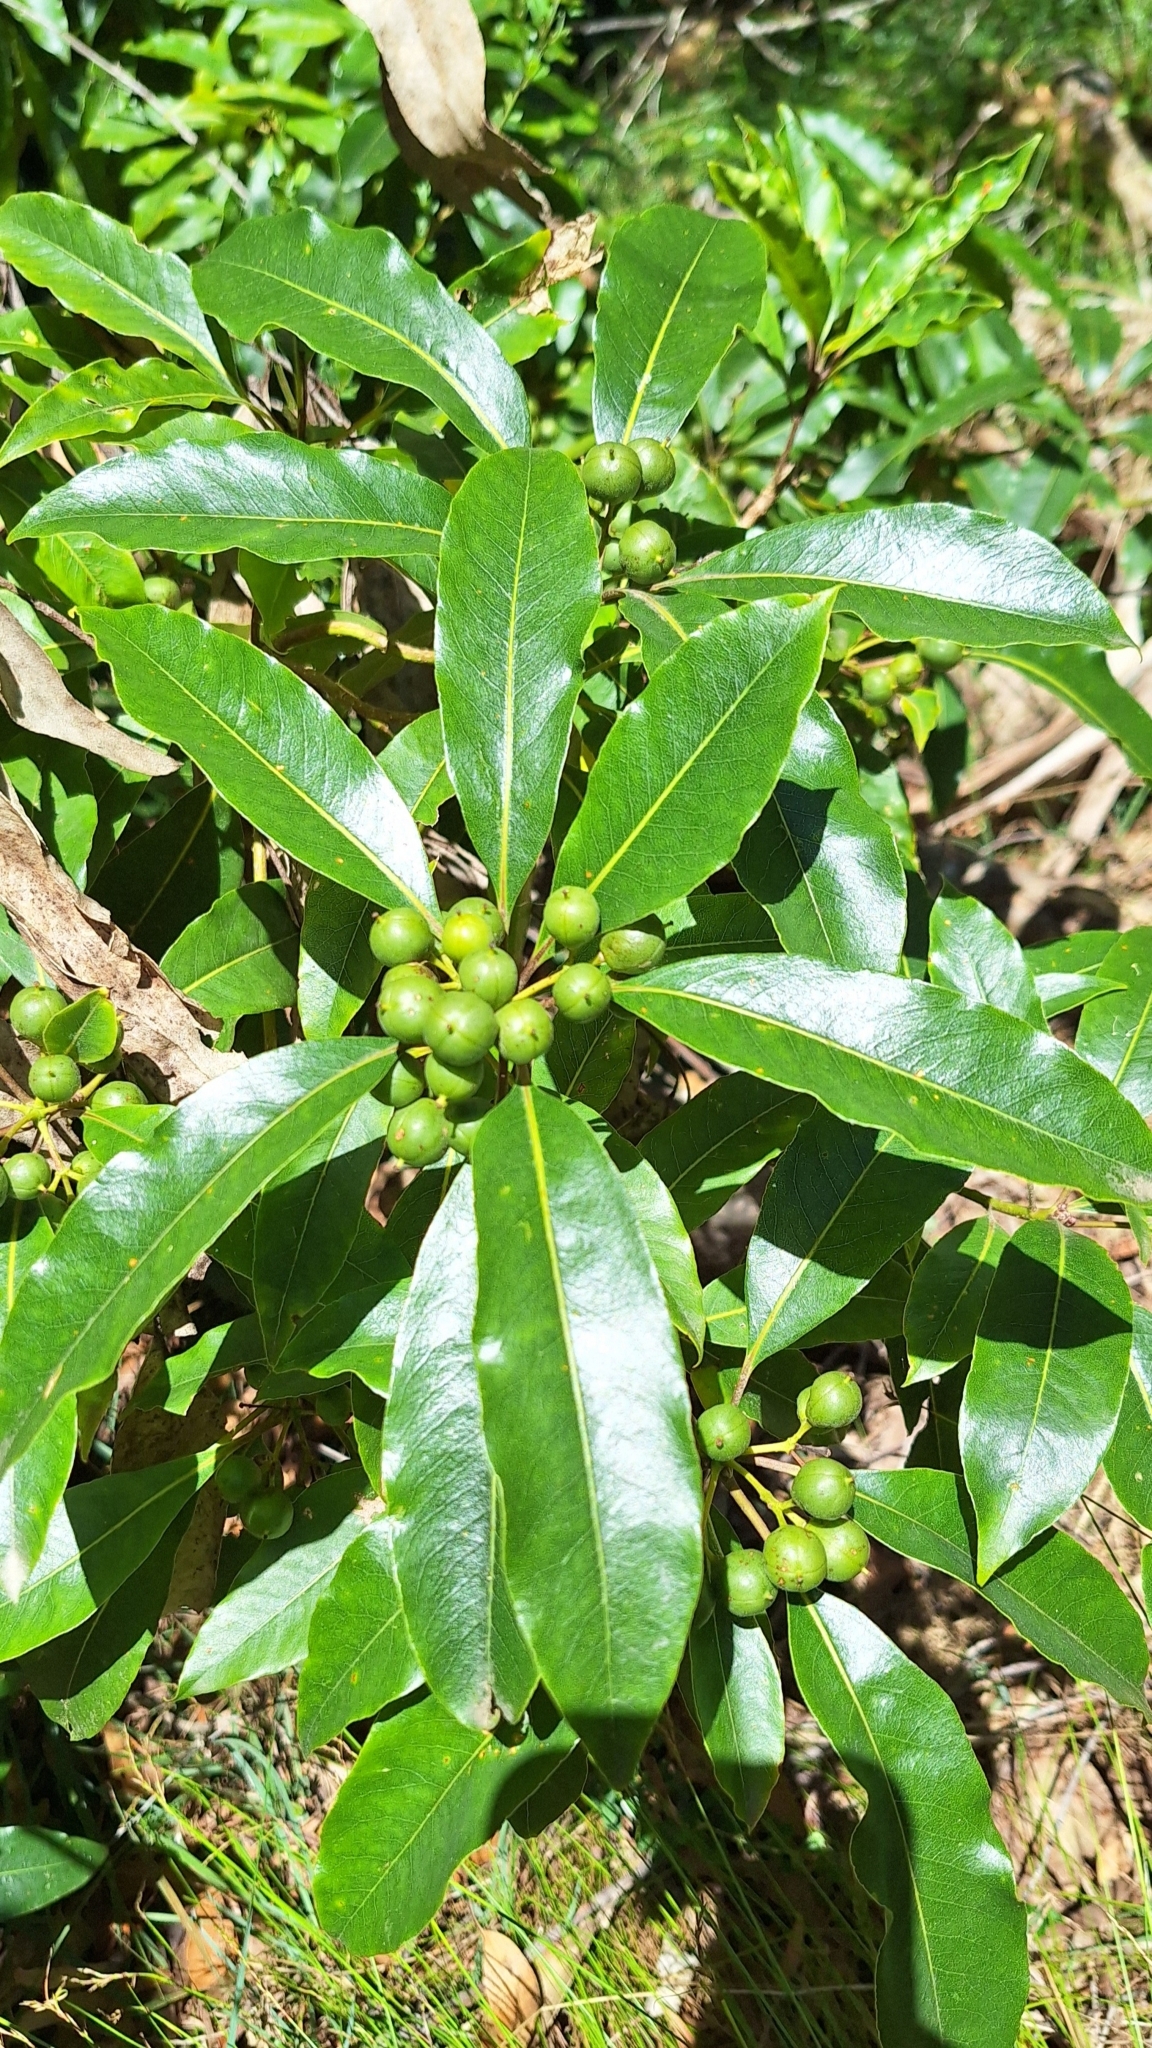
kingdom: Plantae
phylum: Tracheophyta
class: Magnoliopsida
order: Apiales
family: Pittosporaceae
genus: Pittosporum
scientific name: Pittosporum undulatum
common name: Australian cheesewood
